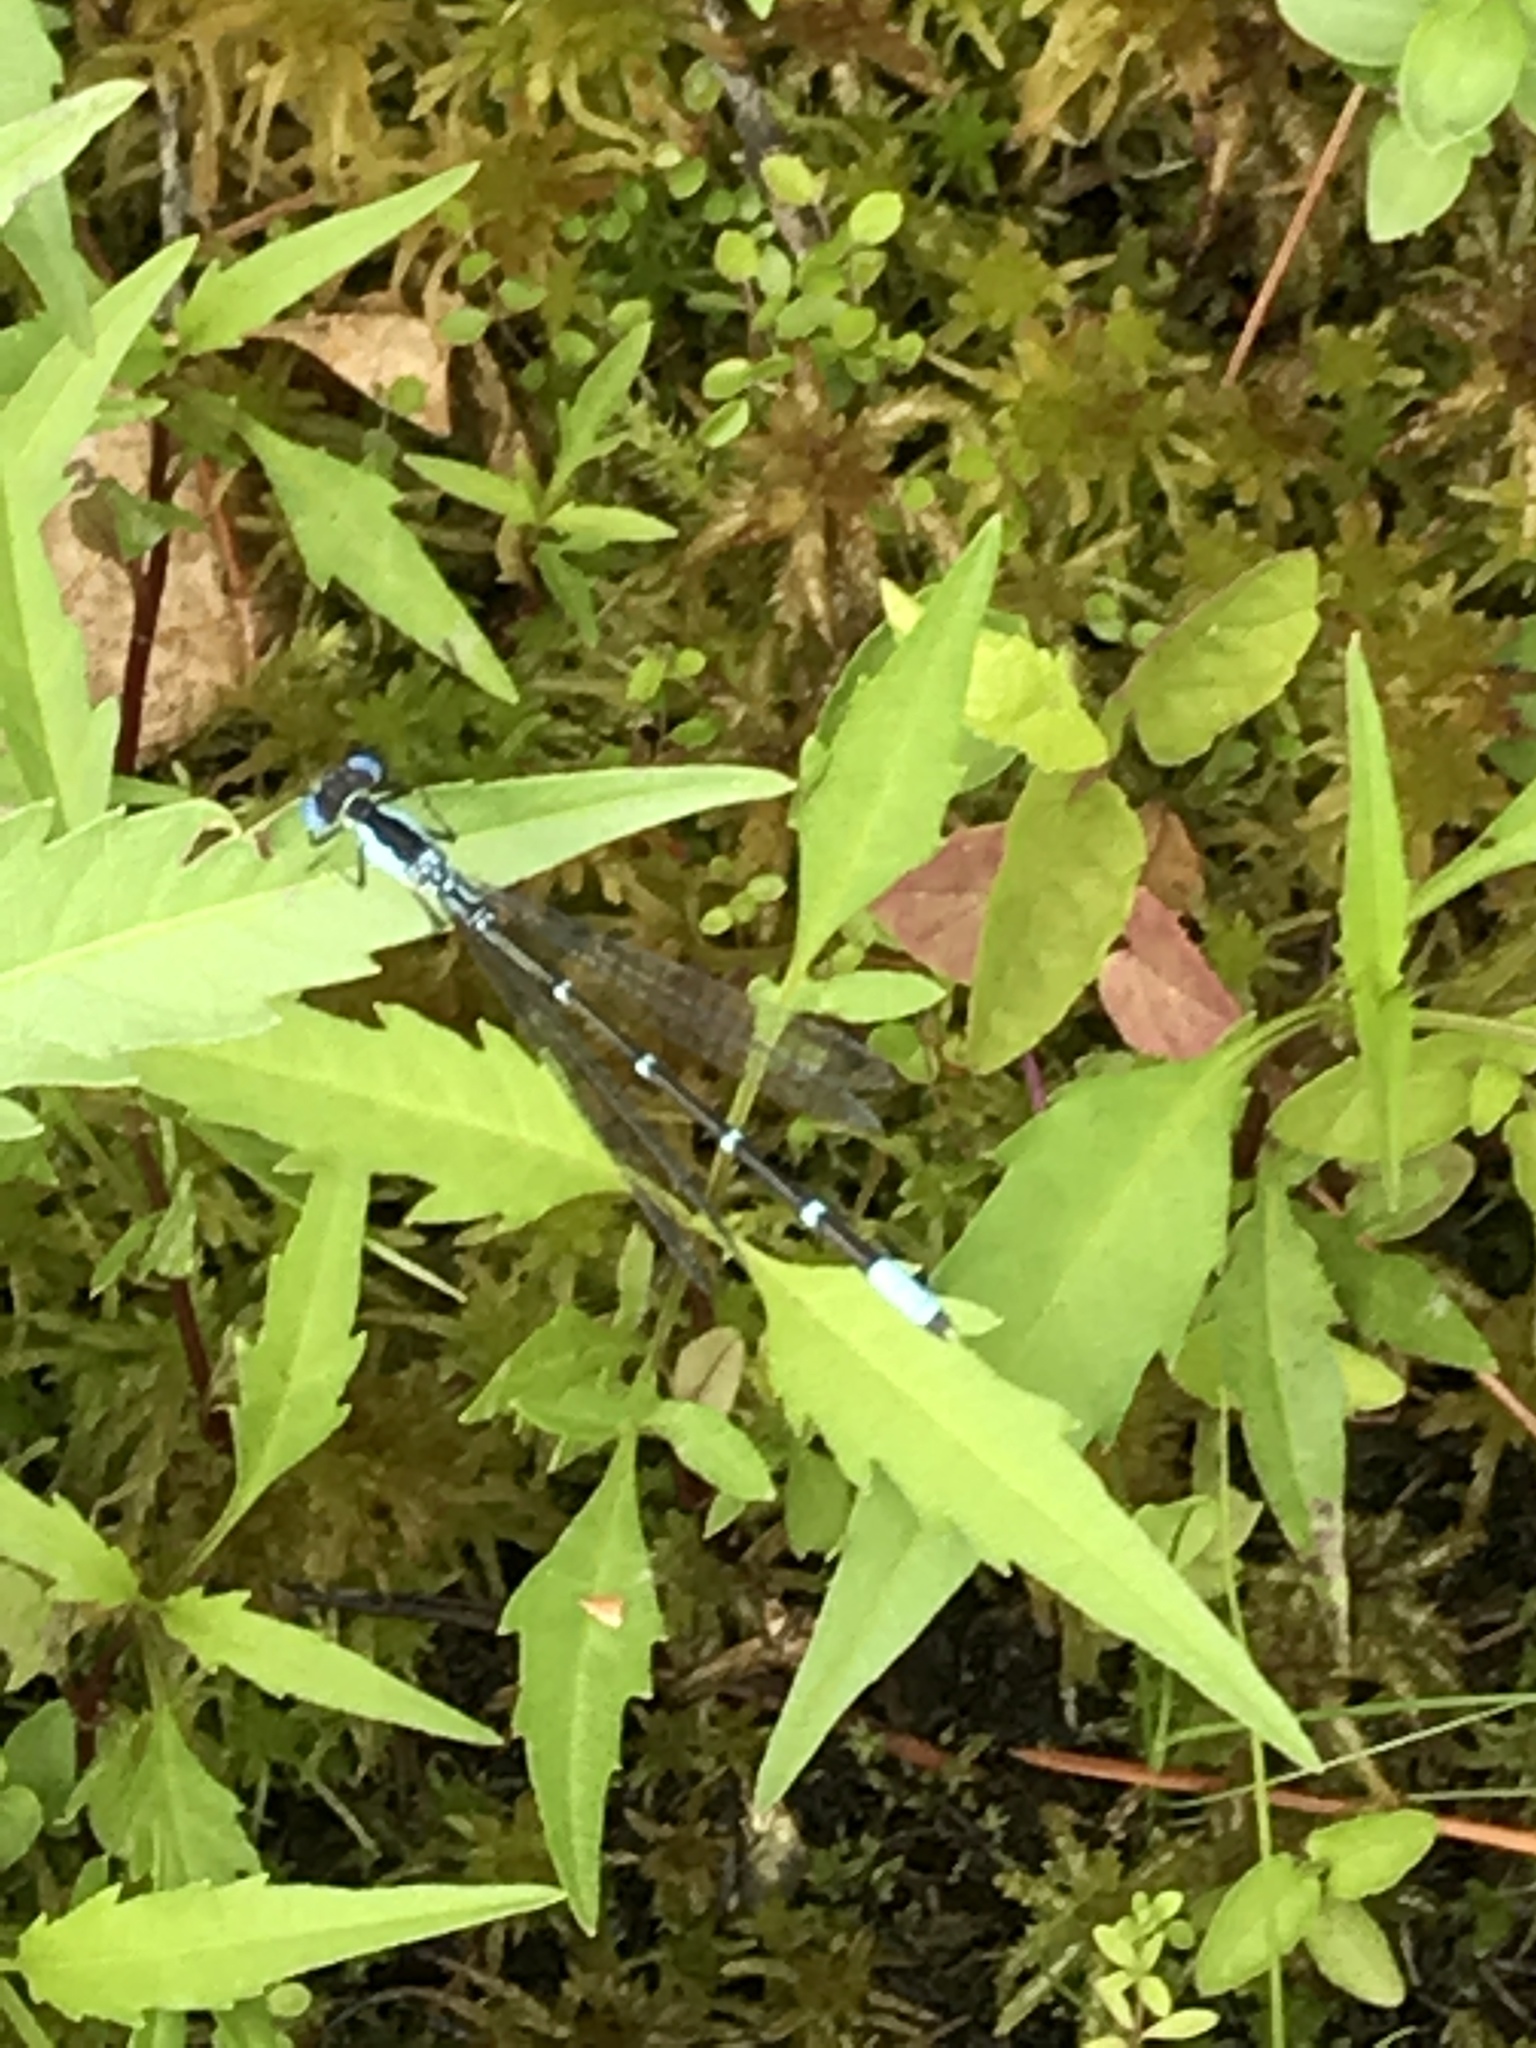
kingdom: Animalia
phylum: Arthropoda
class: Insecta
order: Odonata
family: Coenagrionidae
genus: Chromagrion
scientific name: Chromagrion conditum
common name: Aurora damsel
